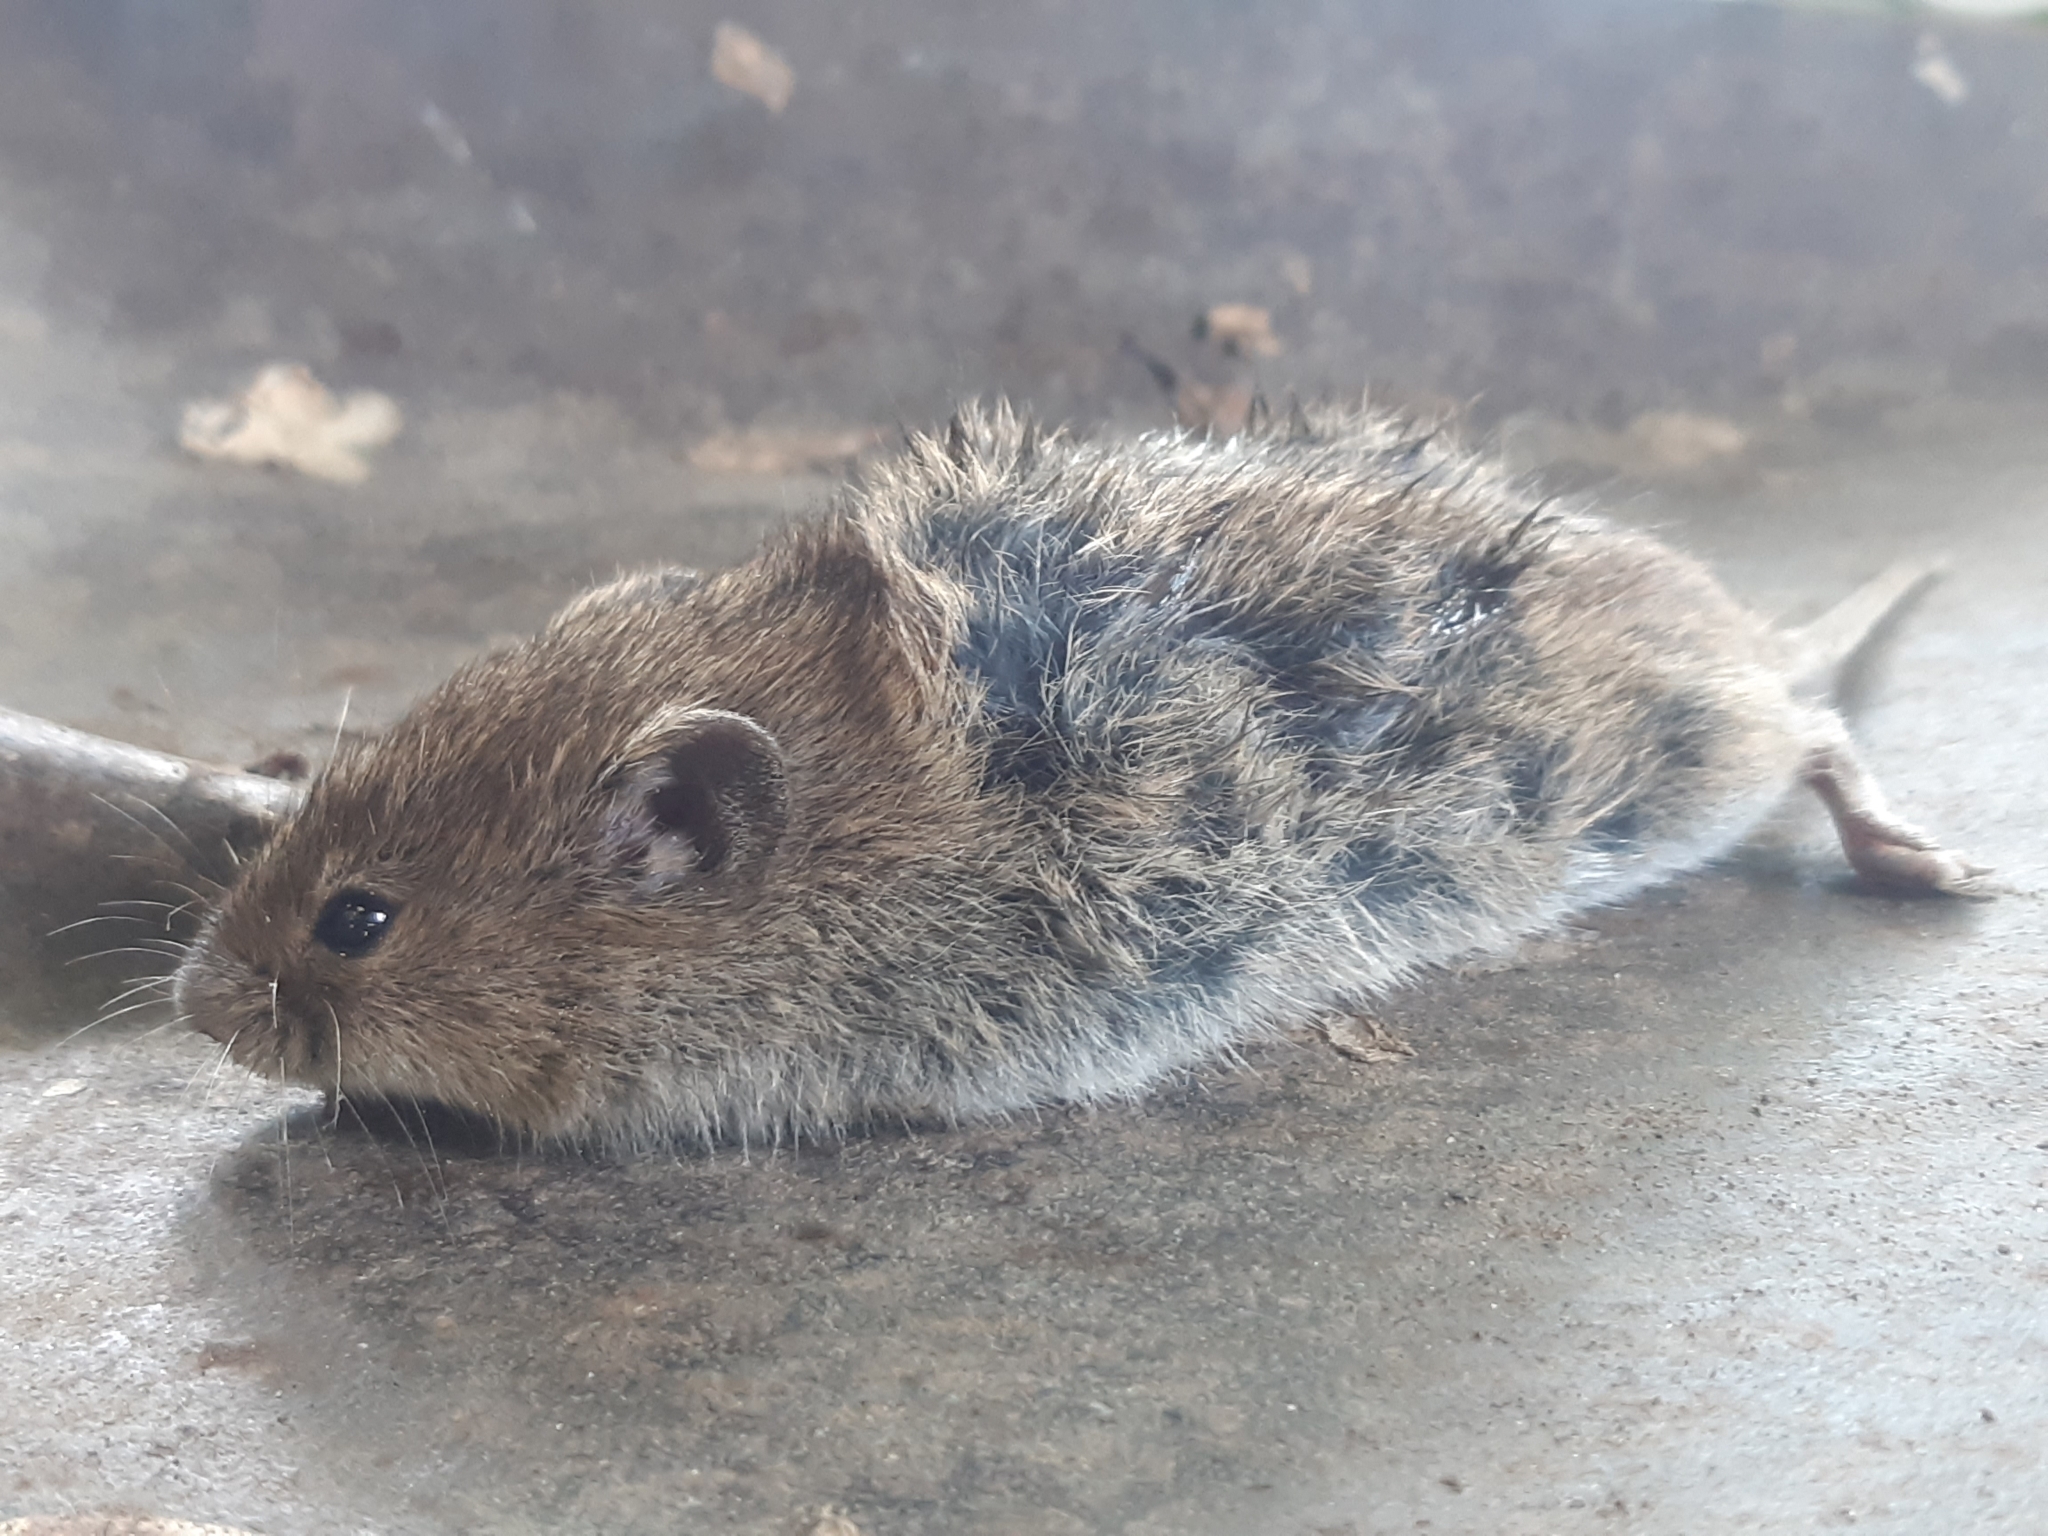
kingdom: Animalia
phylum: Chordata
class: Mammalia
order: Rodentia
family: Cricetidae
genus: Microtus
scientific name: Microtus arvalis
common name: Common vole
